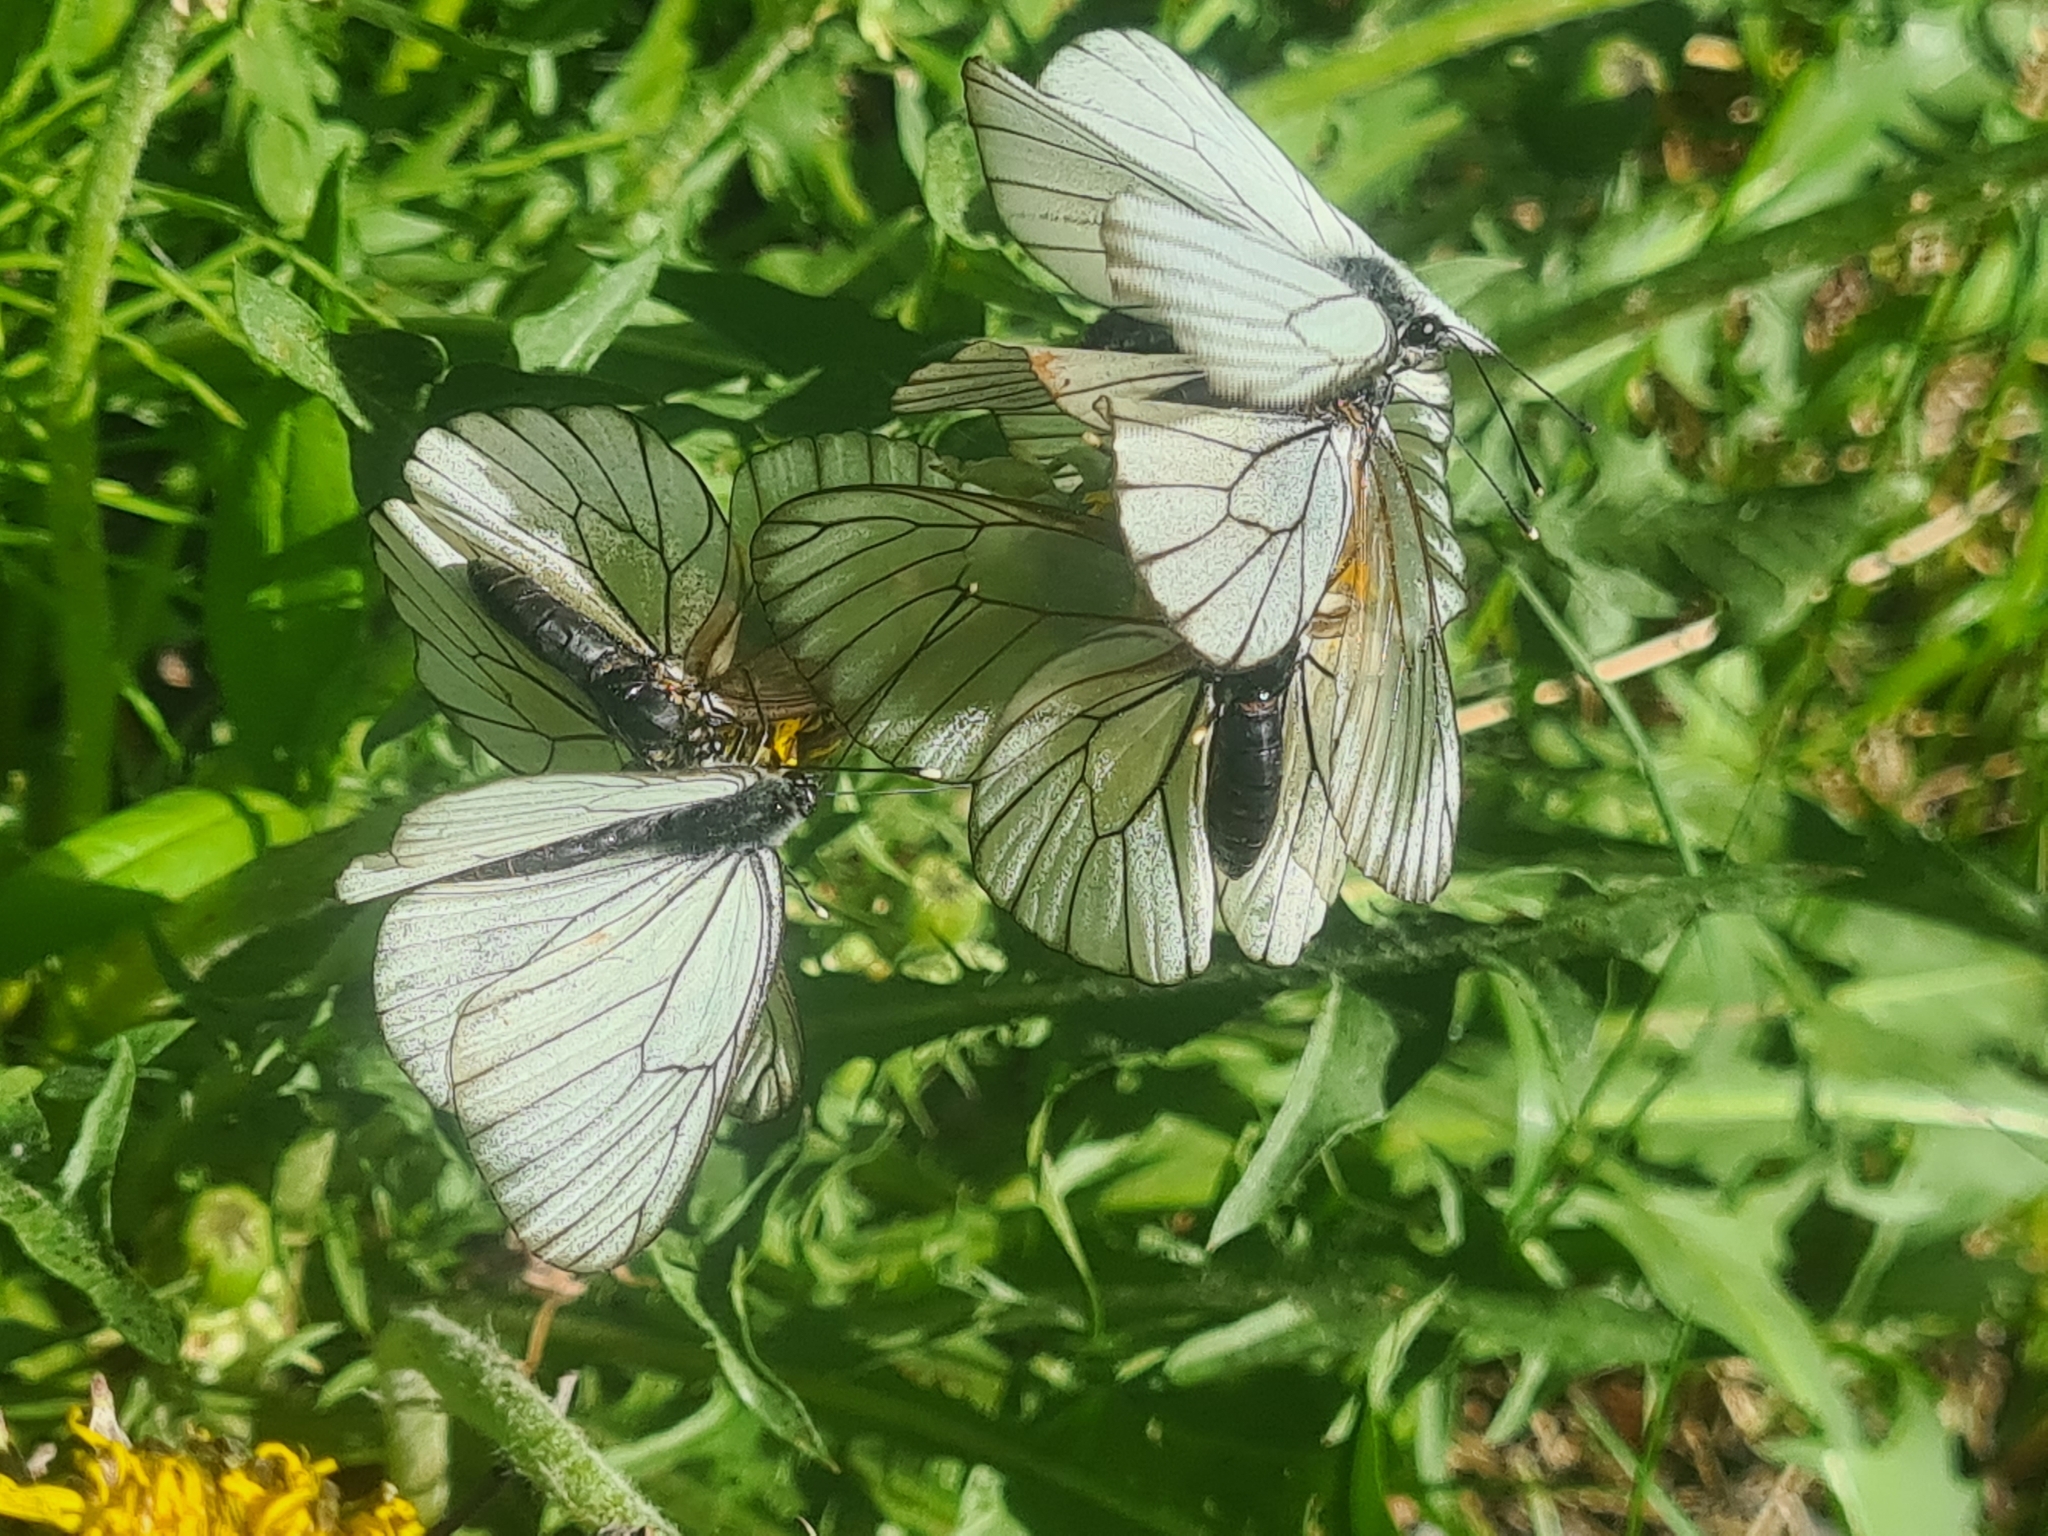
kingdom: Animalia
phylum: Arthropoda
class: Insecta
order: Lepidoptera
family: Pieridae
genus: Aporia
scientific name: Aporia crataegi
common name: Black-veined white
